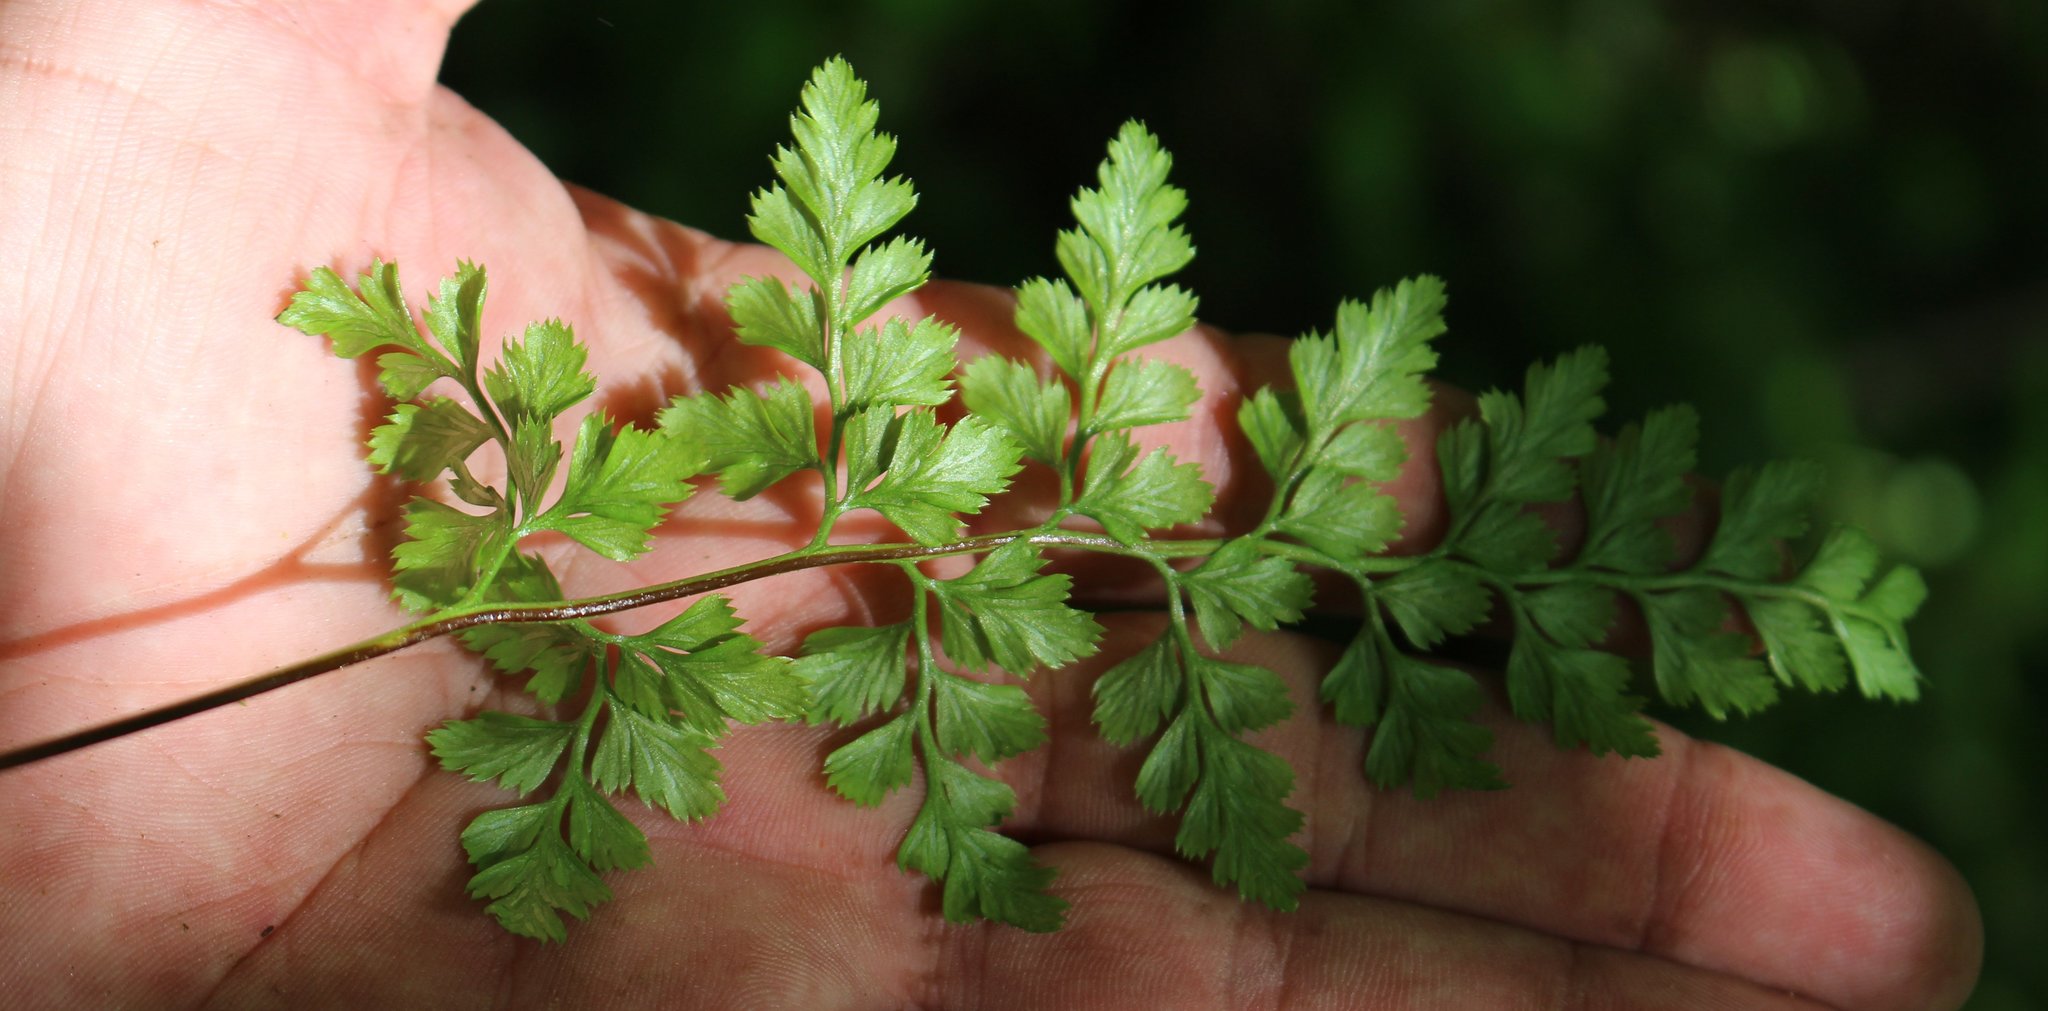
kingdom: Plantae
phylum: Tracheophyta
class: Polypodiopsida
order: Polypodiales
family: Aspleniaceae
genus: Asplenium
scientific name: Asplenium adiantum-nigrum
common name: Black spleenwort
